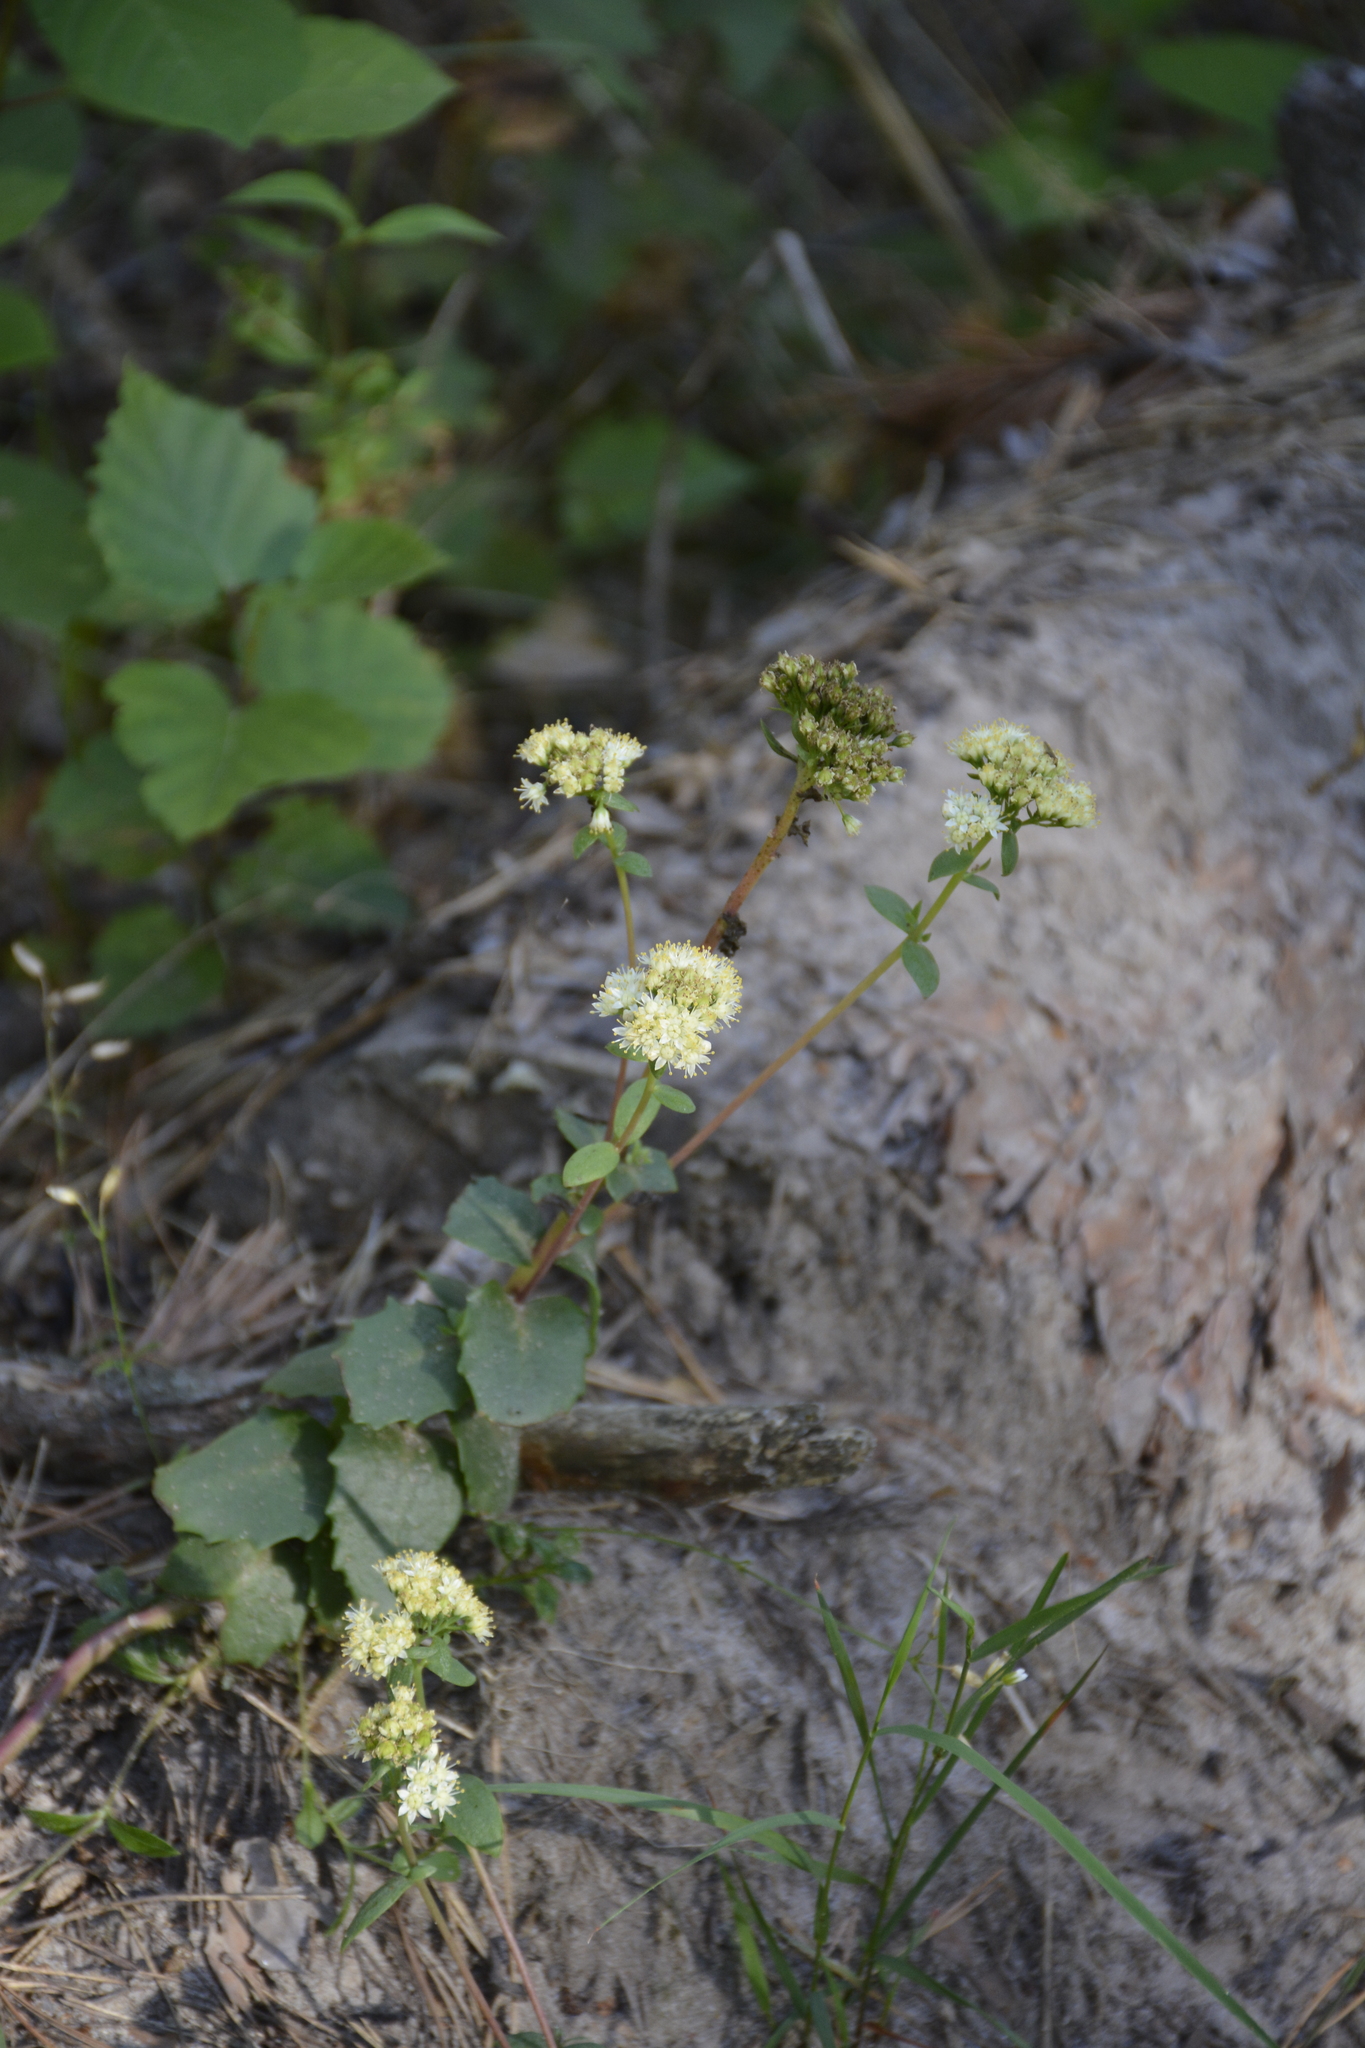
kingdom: Plantae
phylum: Tracheophyta
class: Magnoliopsida
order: Saxifragales
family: Crassulaceae
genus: Hylotelephium
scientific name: Hylotelephium maximum
